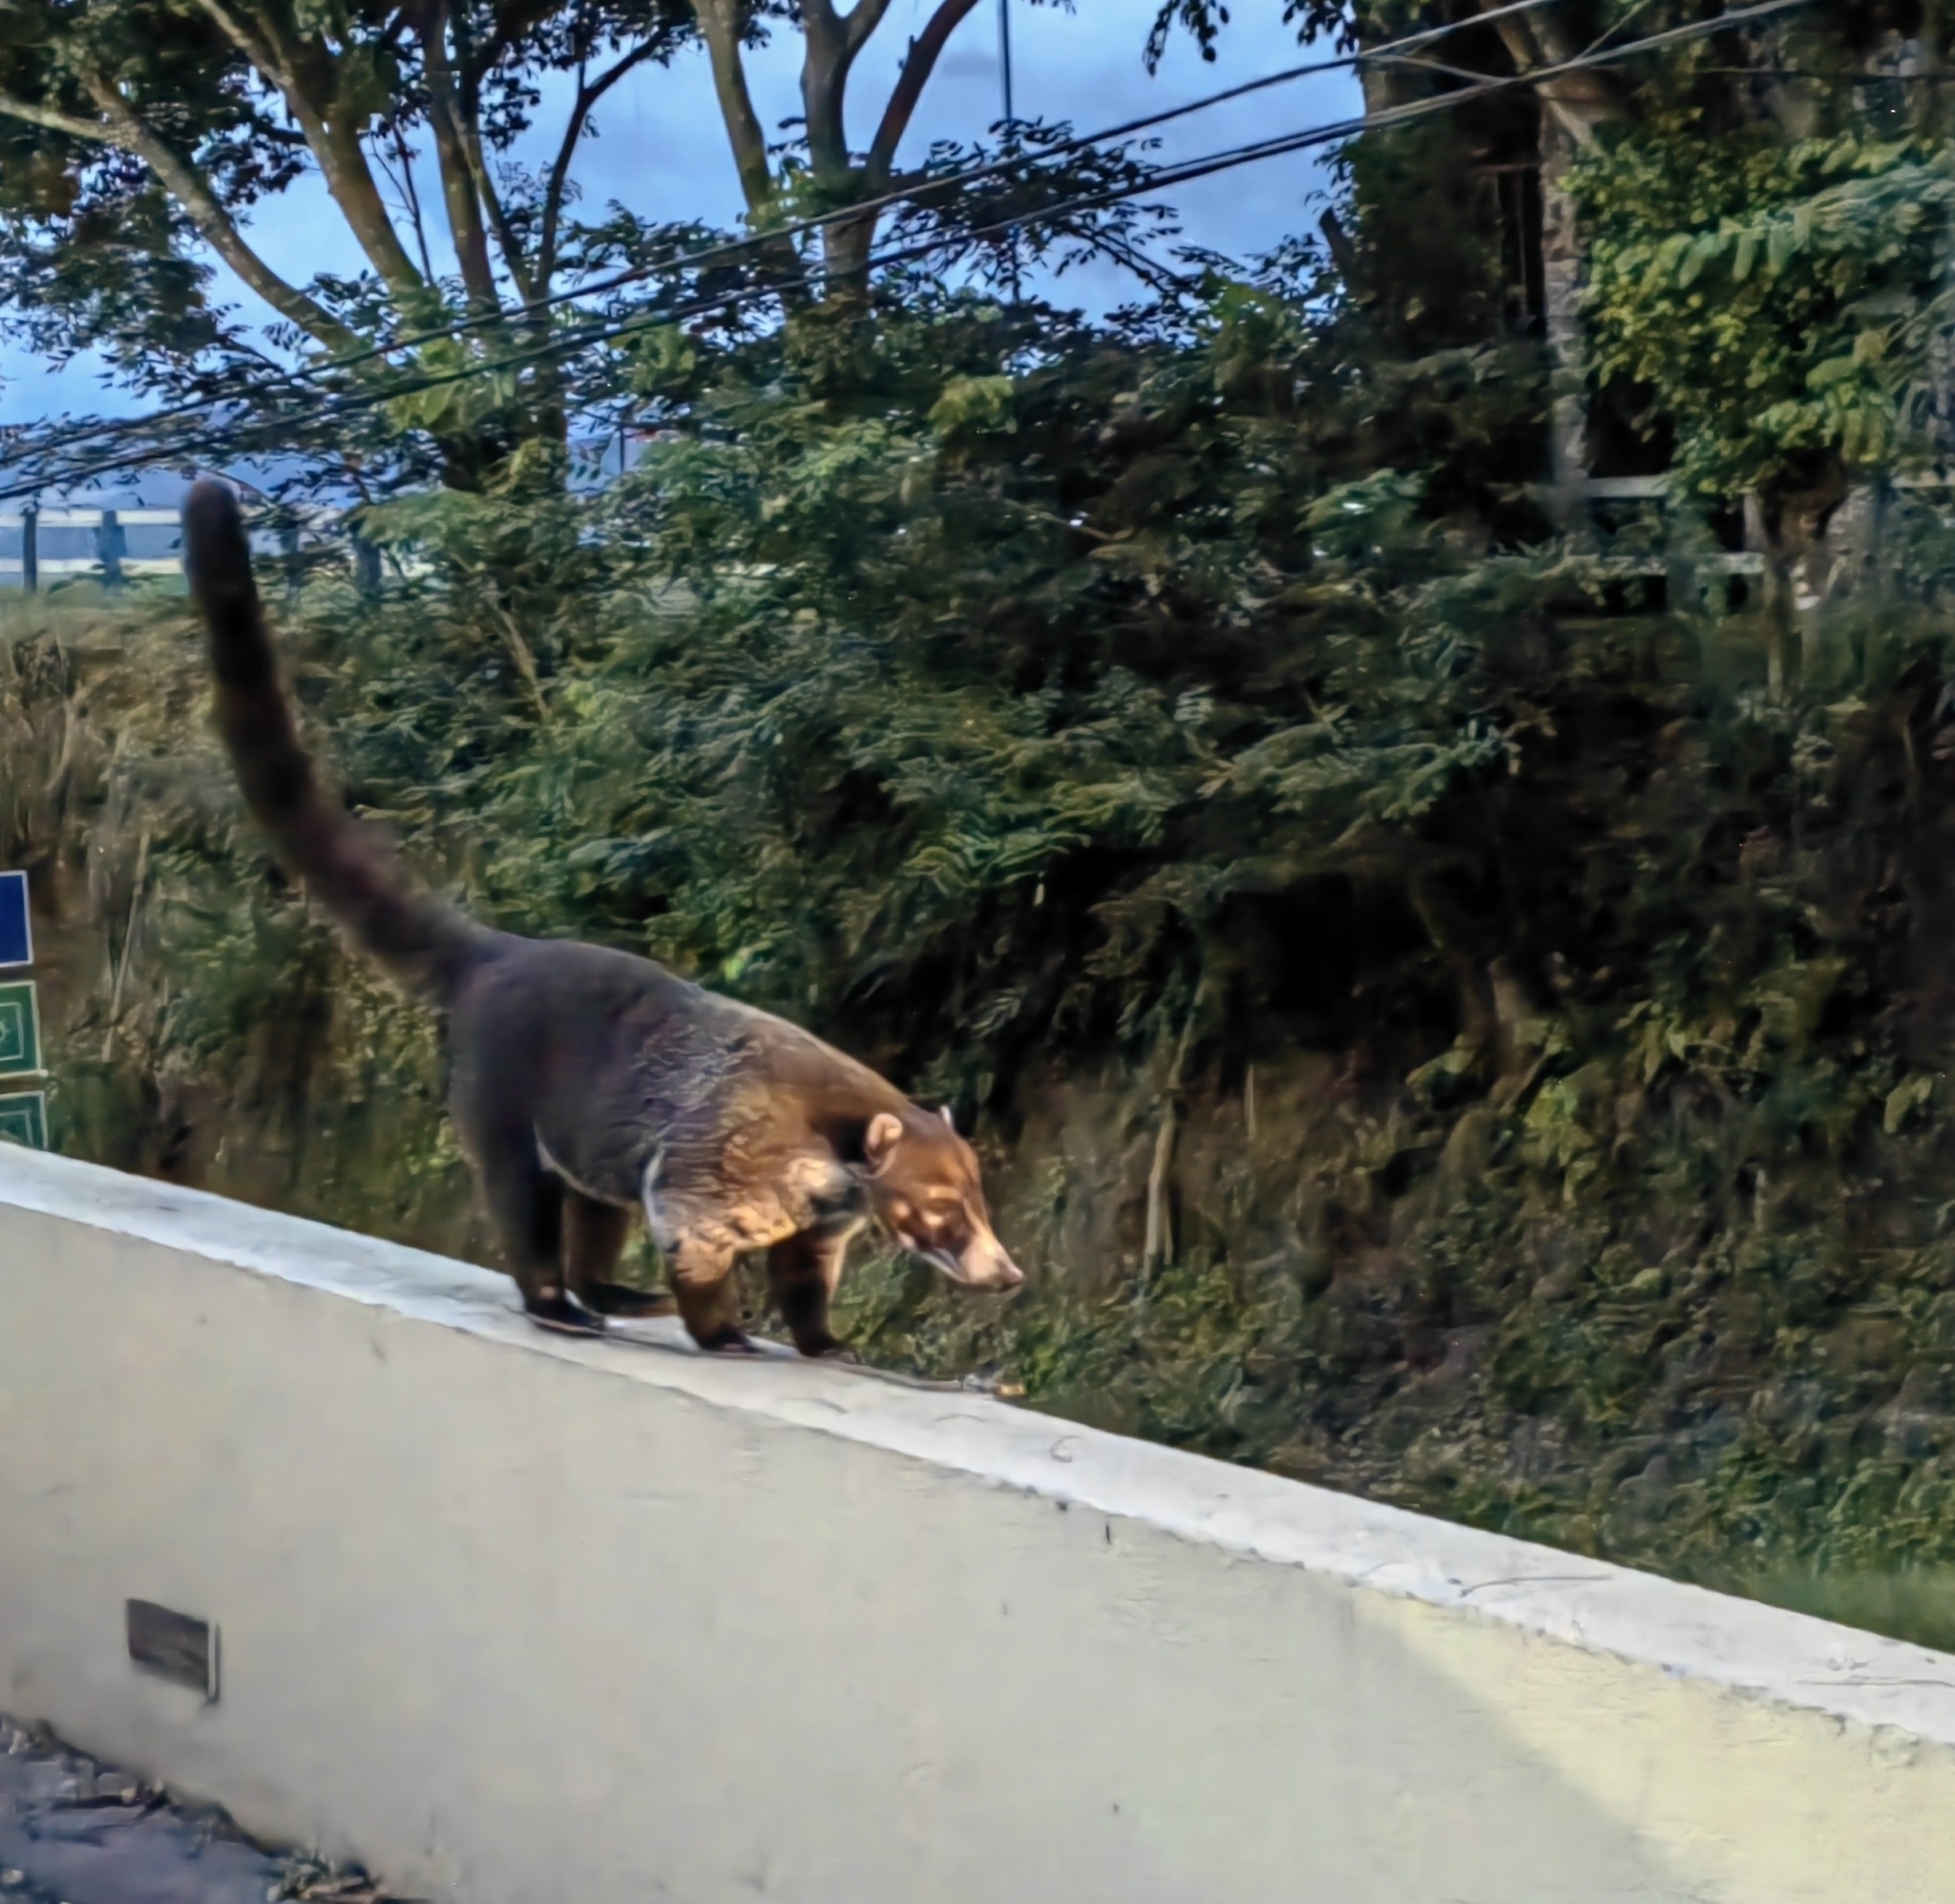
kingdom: Animalia
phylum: Chordata
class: Mammalia
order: Carnivora
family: Procyonidae
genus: Nasua
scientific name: Nasua narica
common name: White-nosed coati
